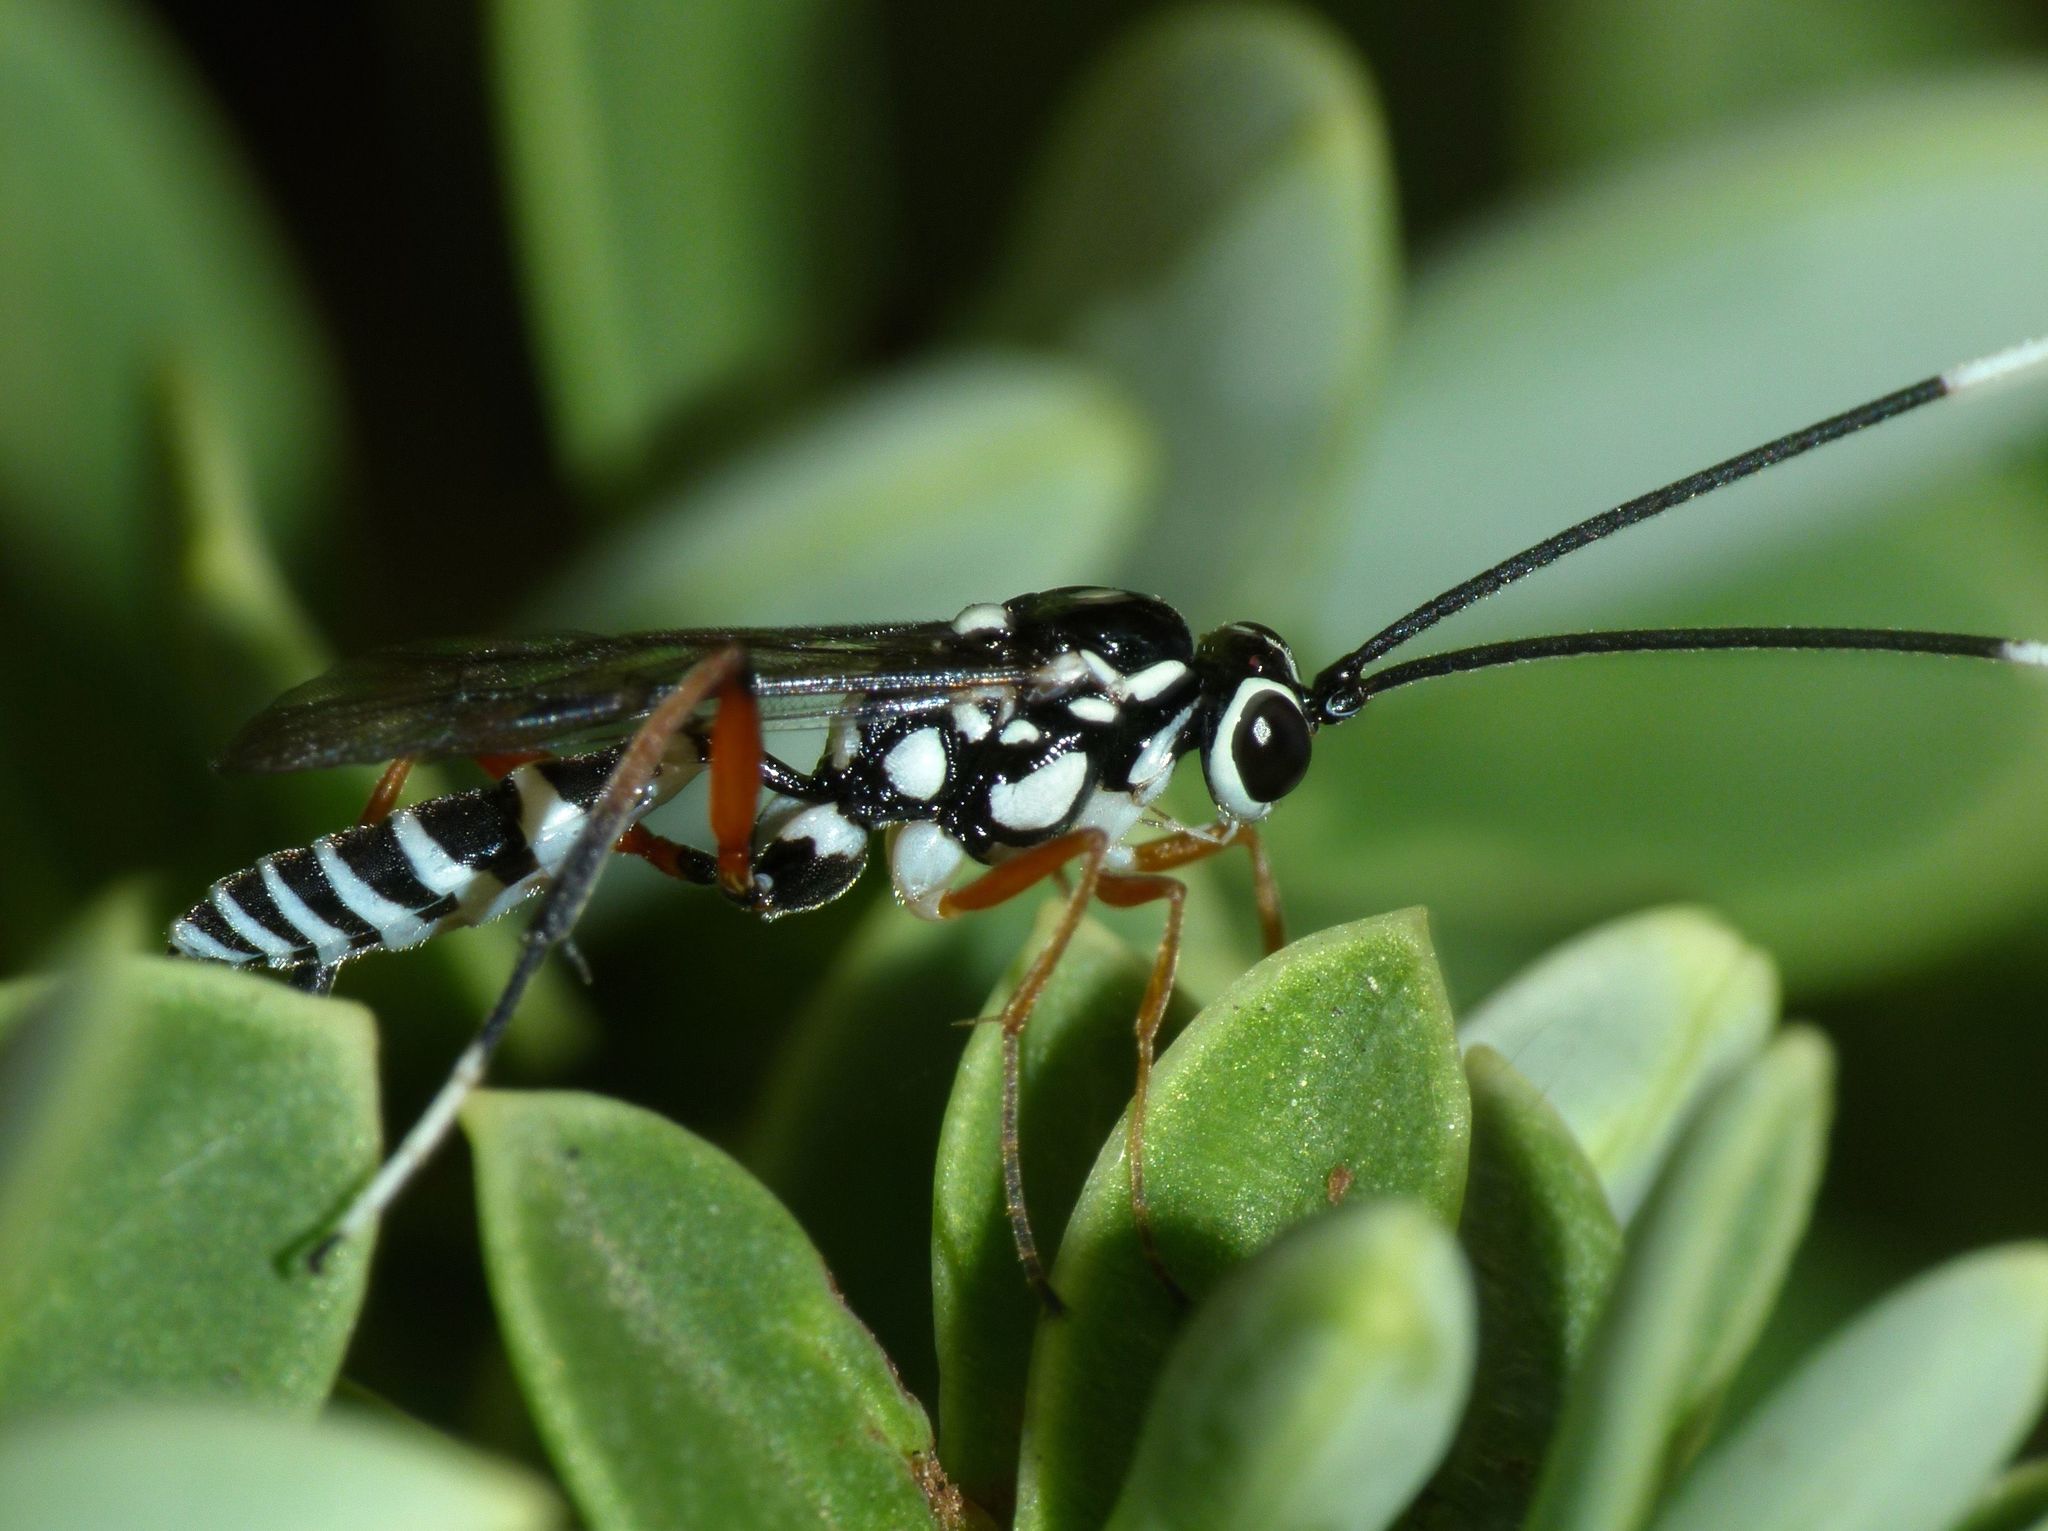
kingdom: Animalia
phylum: Arthropoda
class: Insecta
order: Hymenoptera
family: Ichneumonidae
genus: Glabridorsum
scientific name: Glabridorsum stokesii
